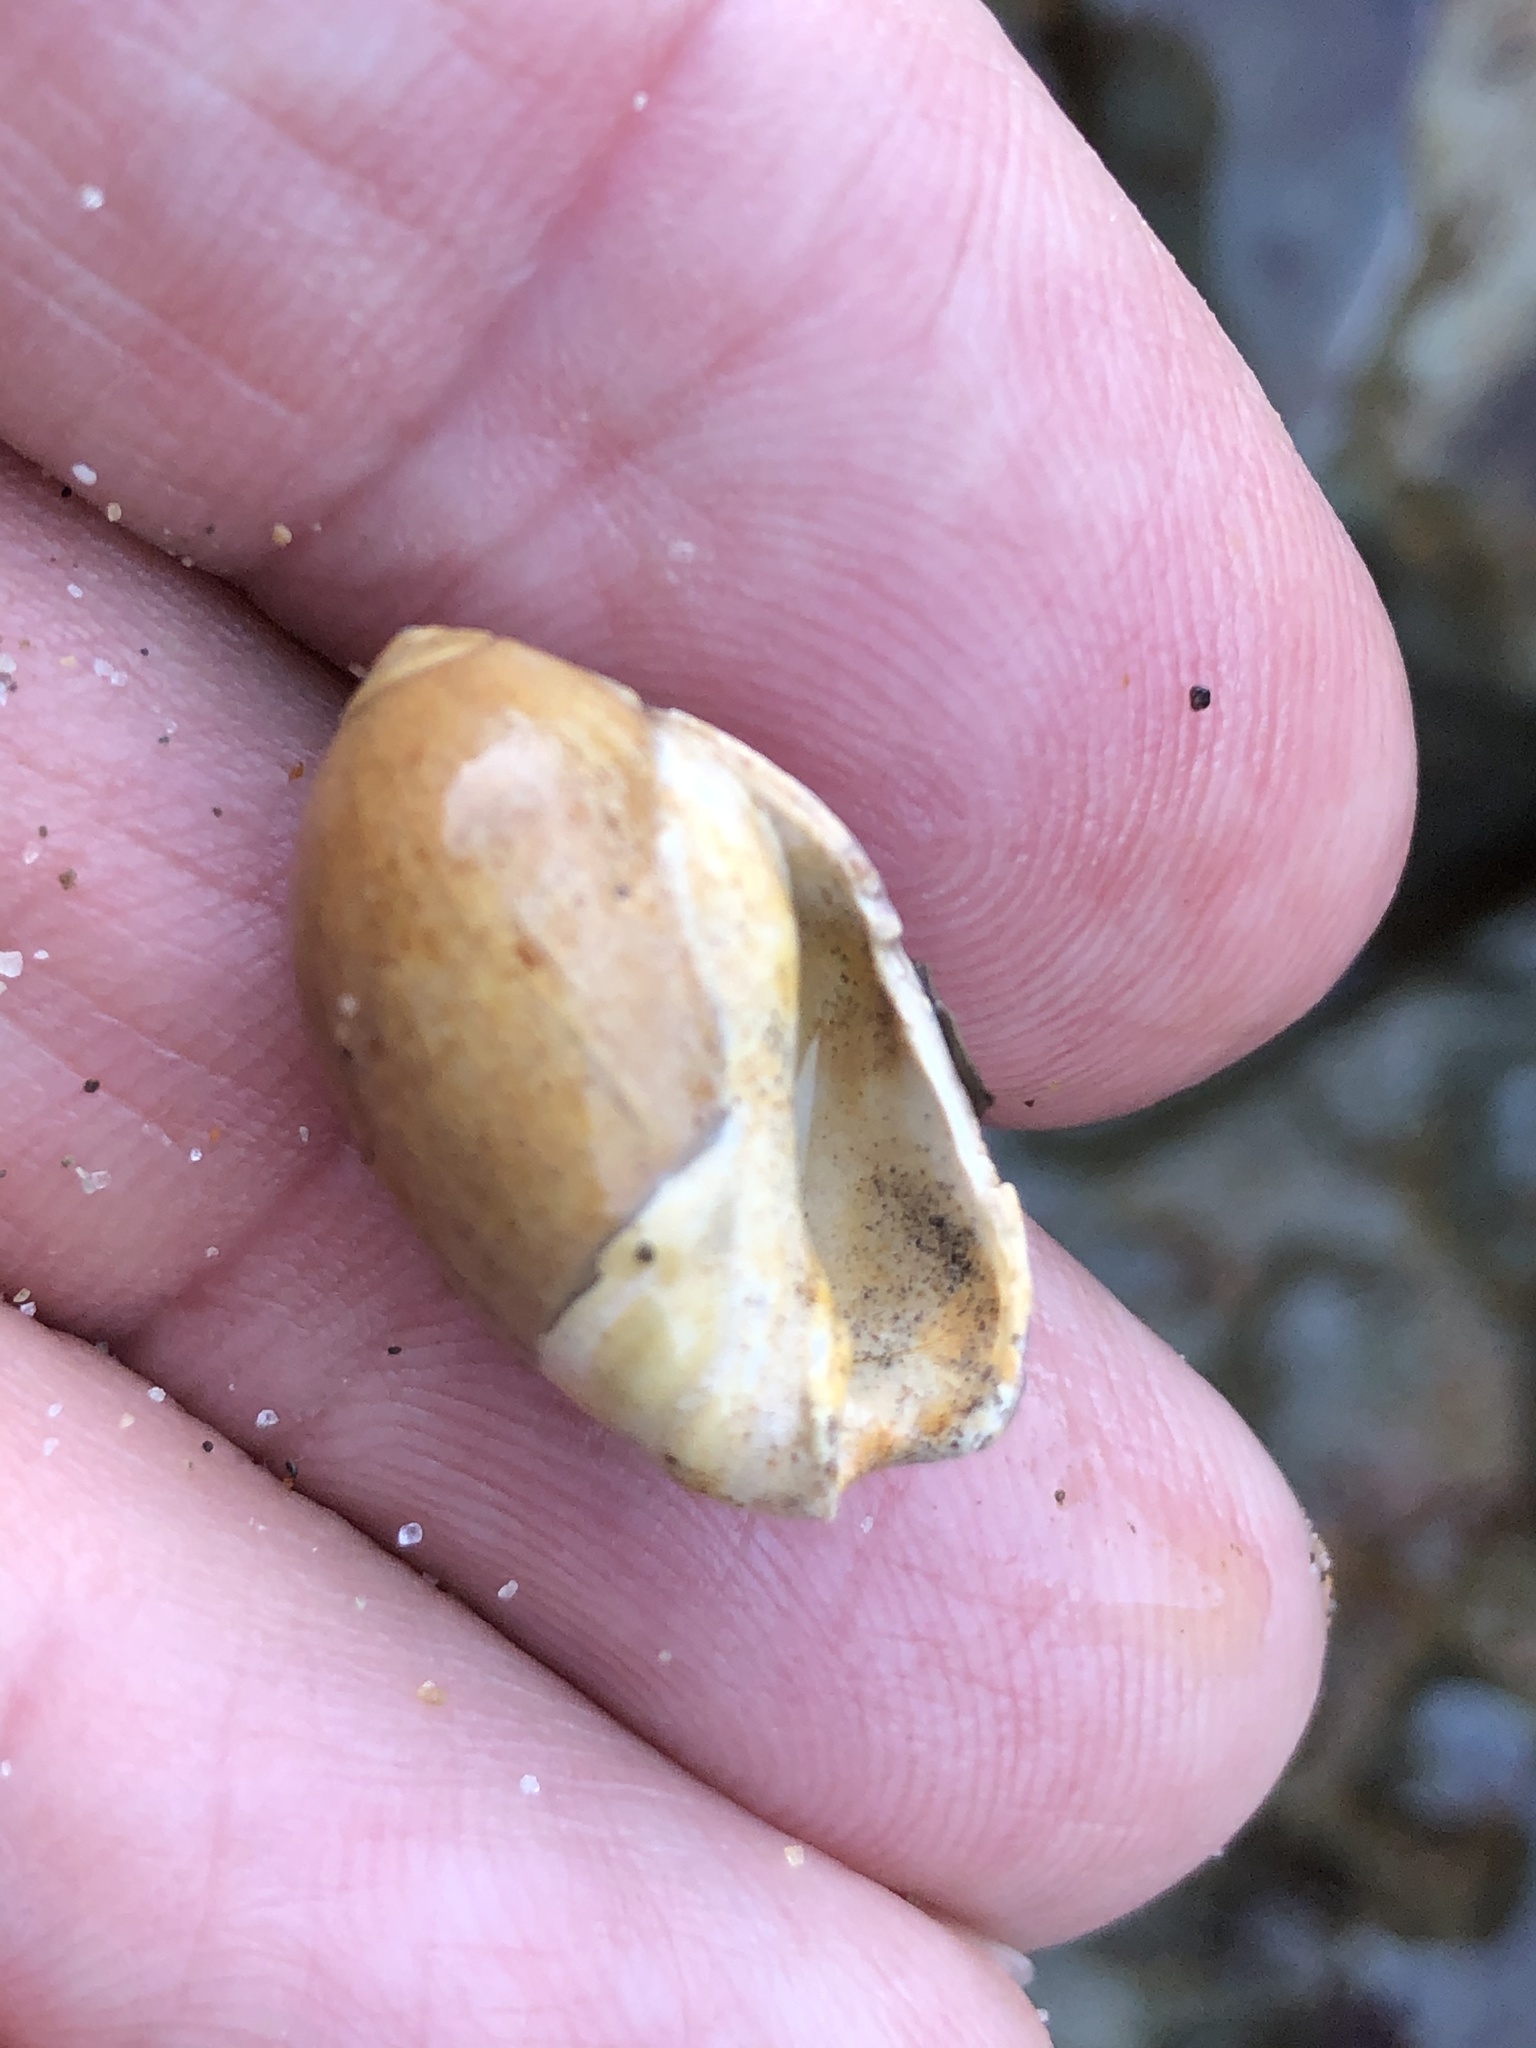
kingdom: Animalia
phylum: Mollusca
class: Gastropoda
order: Neogastropoda
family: Olividae
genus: Callianax
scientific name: Callianax biplicata
